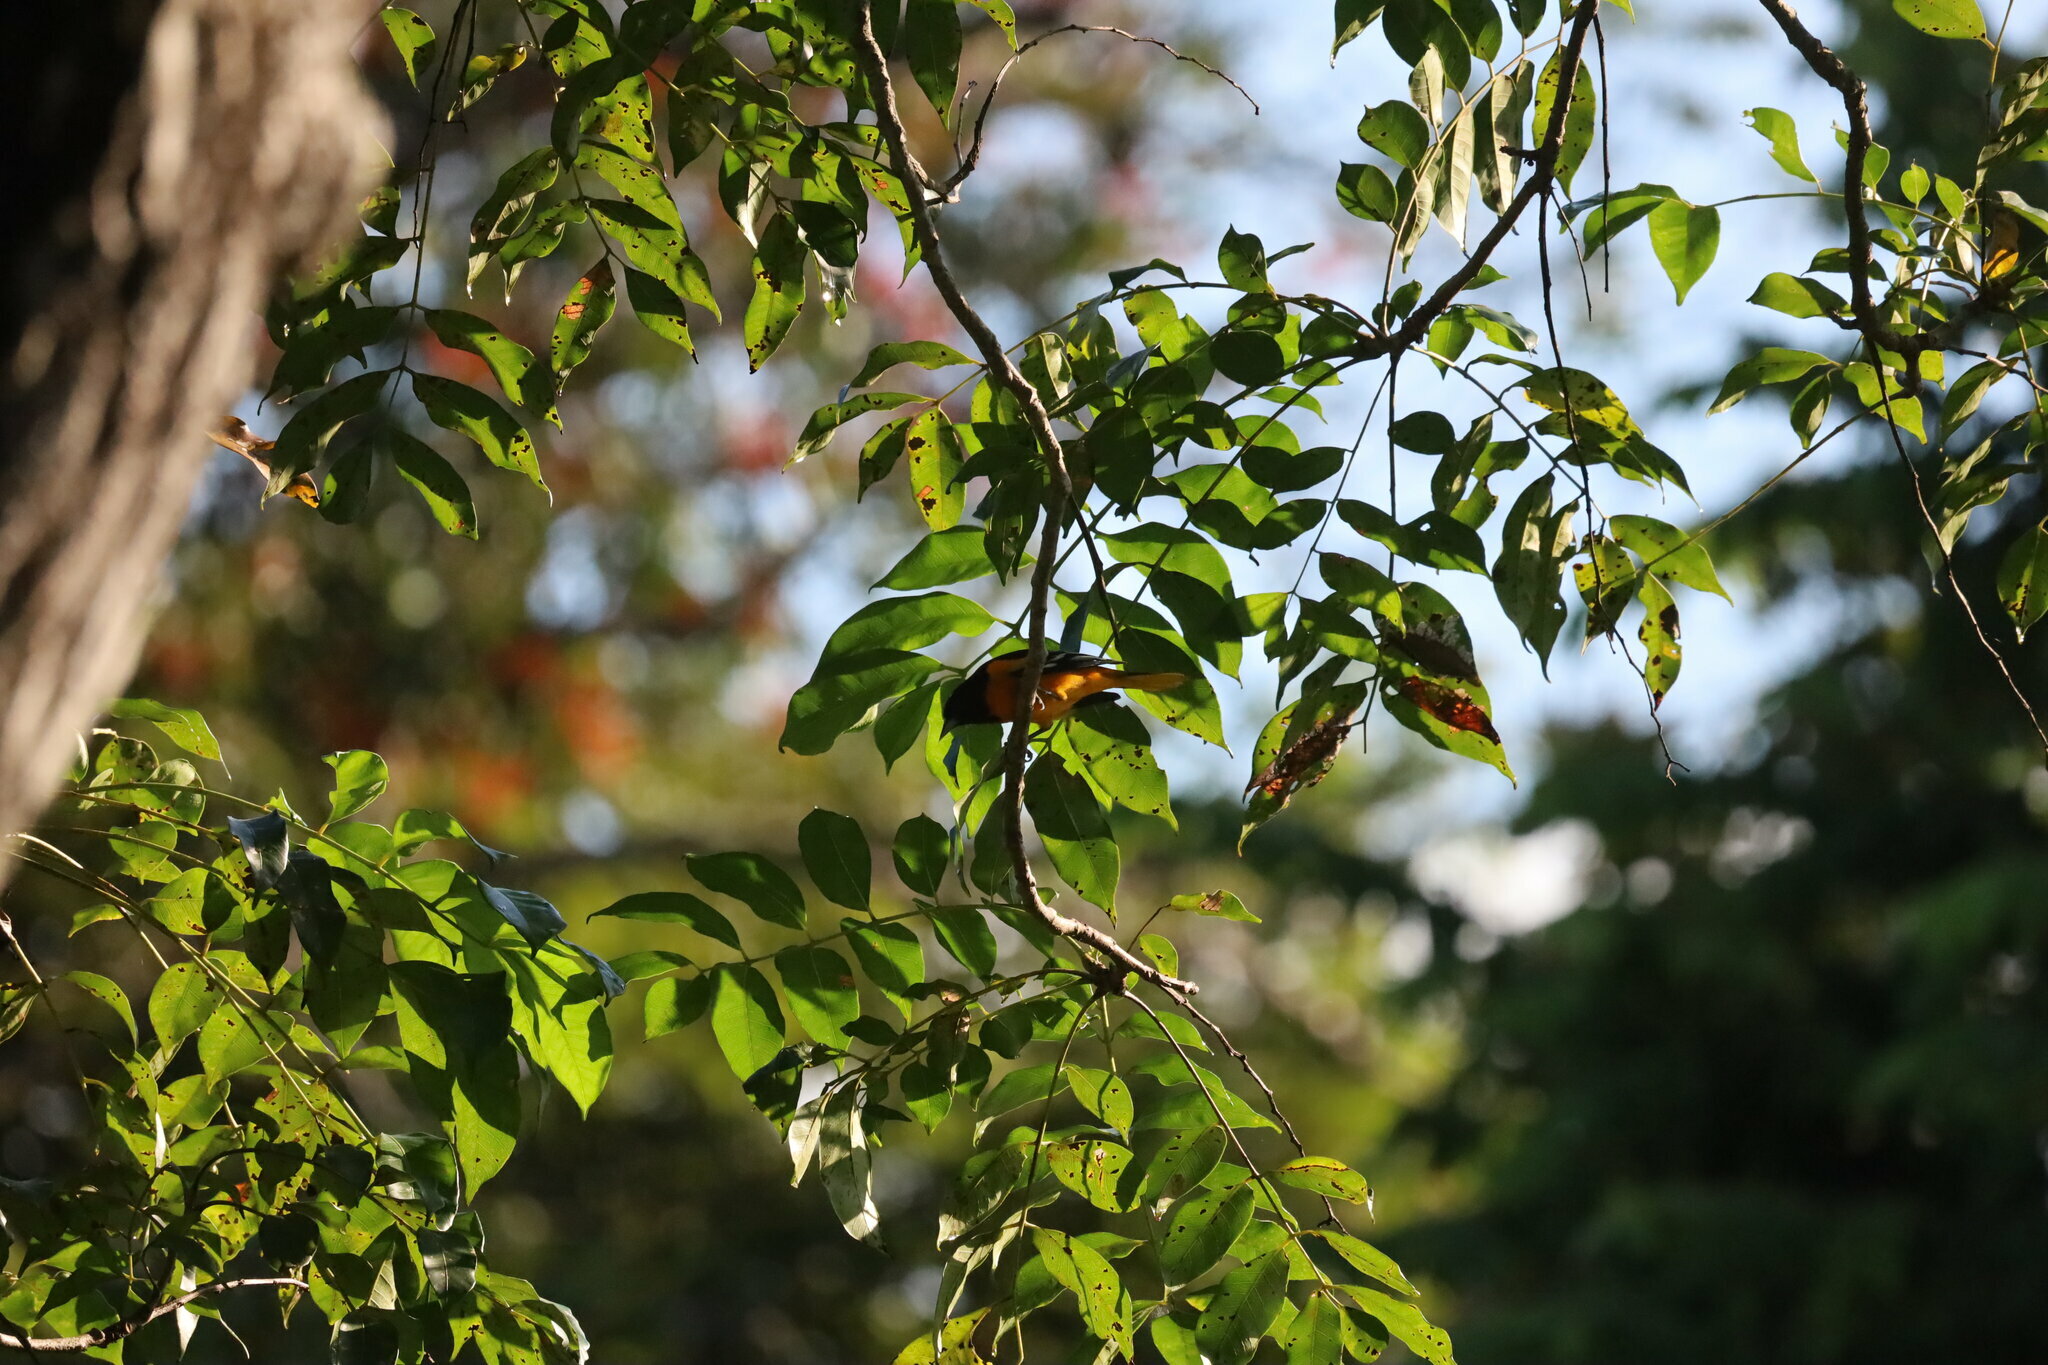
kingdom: Animalia
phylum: Chordata
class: Aves
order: Passeriformes
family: Icteridae
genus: Icterus
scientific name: Icterus galbula
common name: Baltimore oriole
